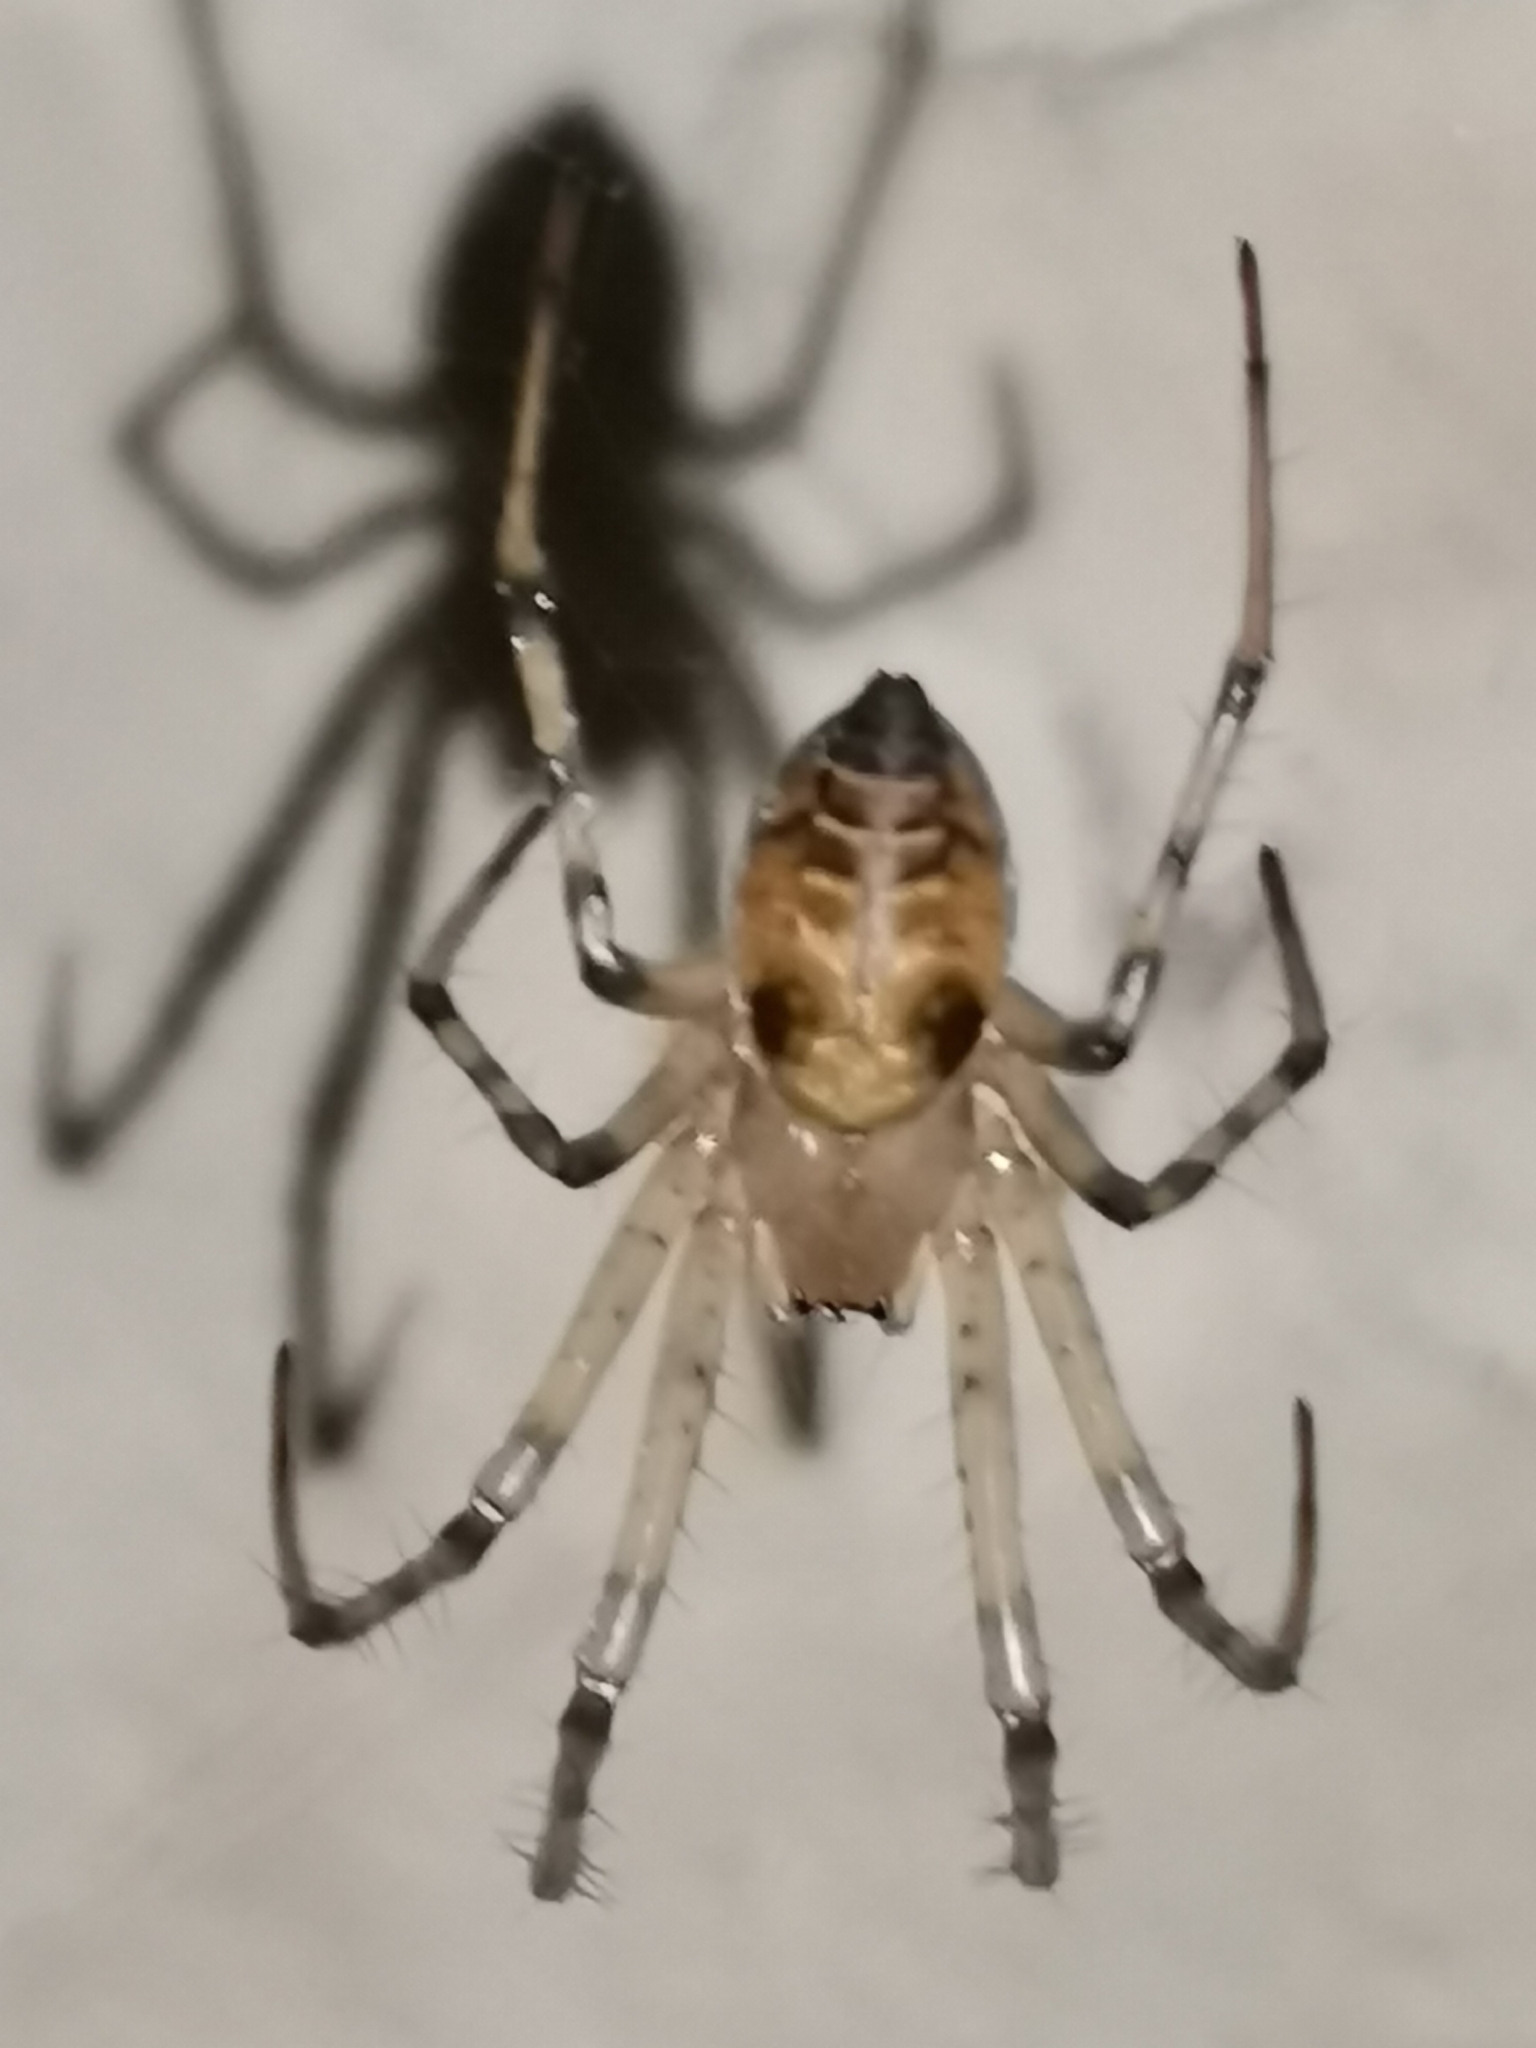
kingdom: Animalia
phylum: Arthropoda
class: Arachnida
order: Araneae
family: Tetragnathidae
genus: Meta
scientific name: Meta menardi
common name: Cave spider
